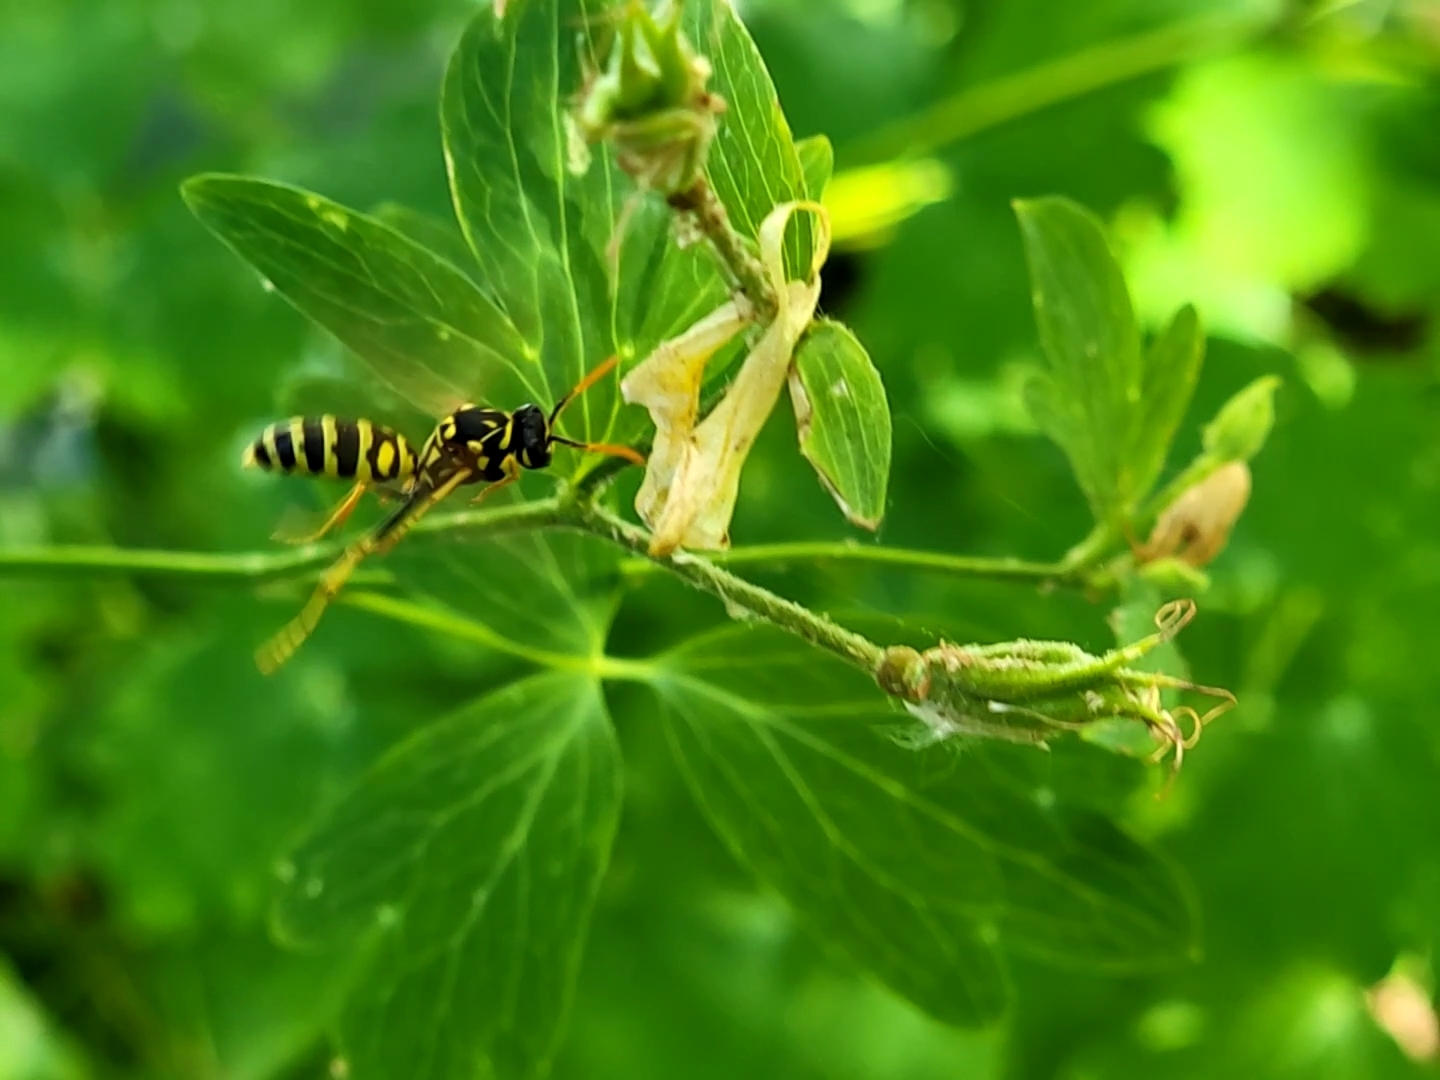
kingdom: Animalia
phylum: Arthropoda
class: Insecta
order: Hymenoptera
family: Eumenidae
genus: Polistes
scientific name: Polistes dominula
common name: Paper wasp
